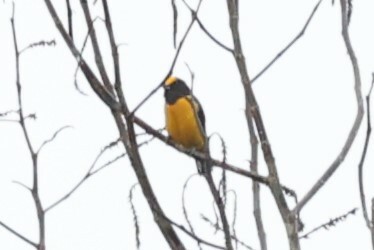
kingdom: Animalia
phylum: Chordata
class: Aves
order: Passeriformes
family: Fringillidae
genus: Euphonia
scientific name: Euphonia xanthogaster
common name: Orange-bellied euphonia
